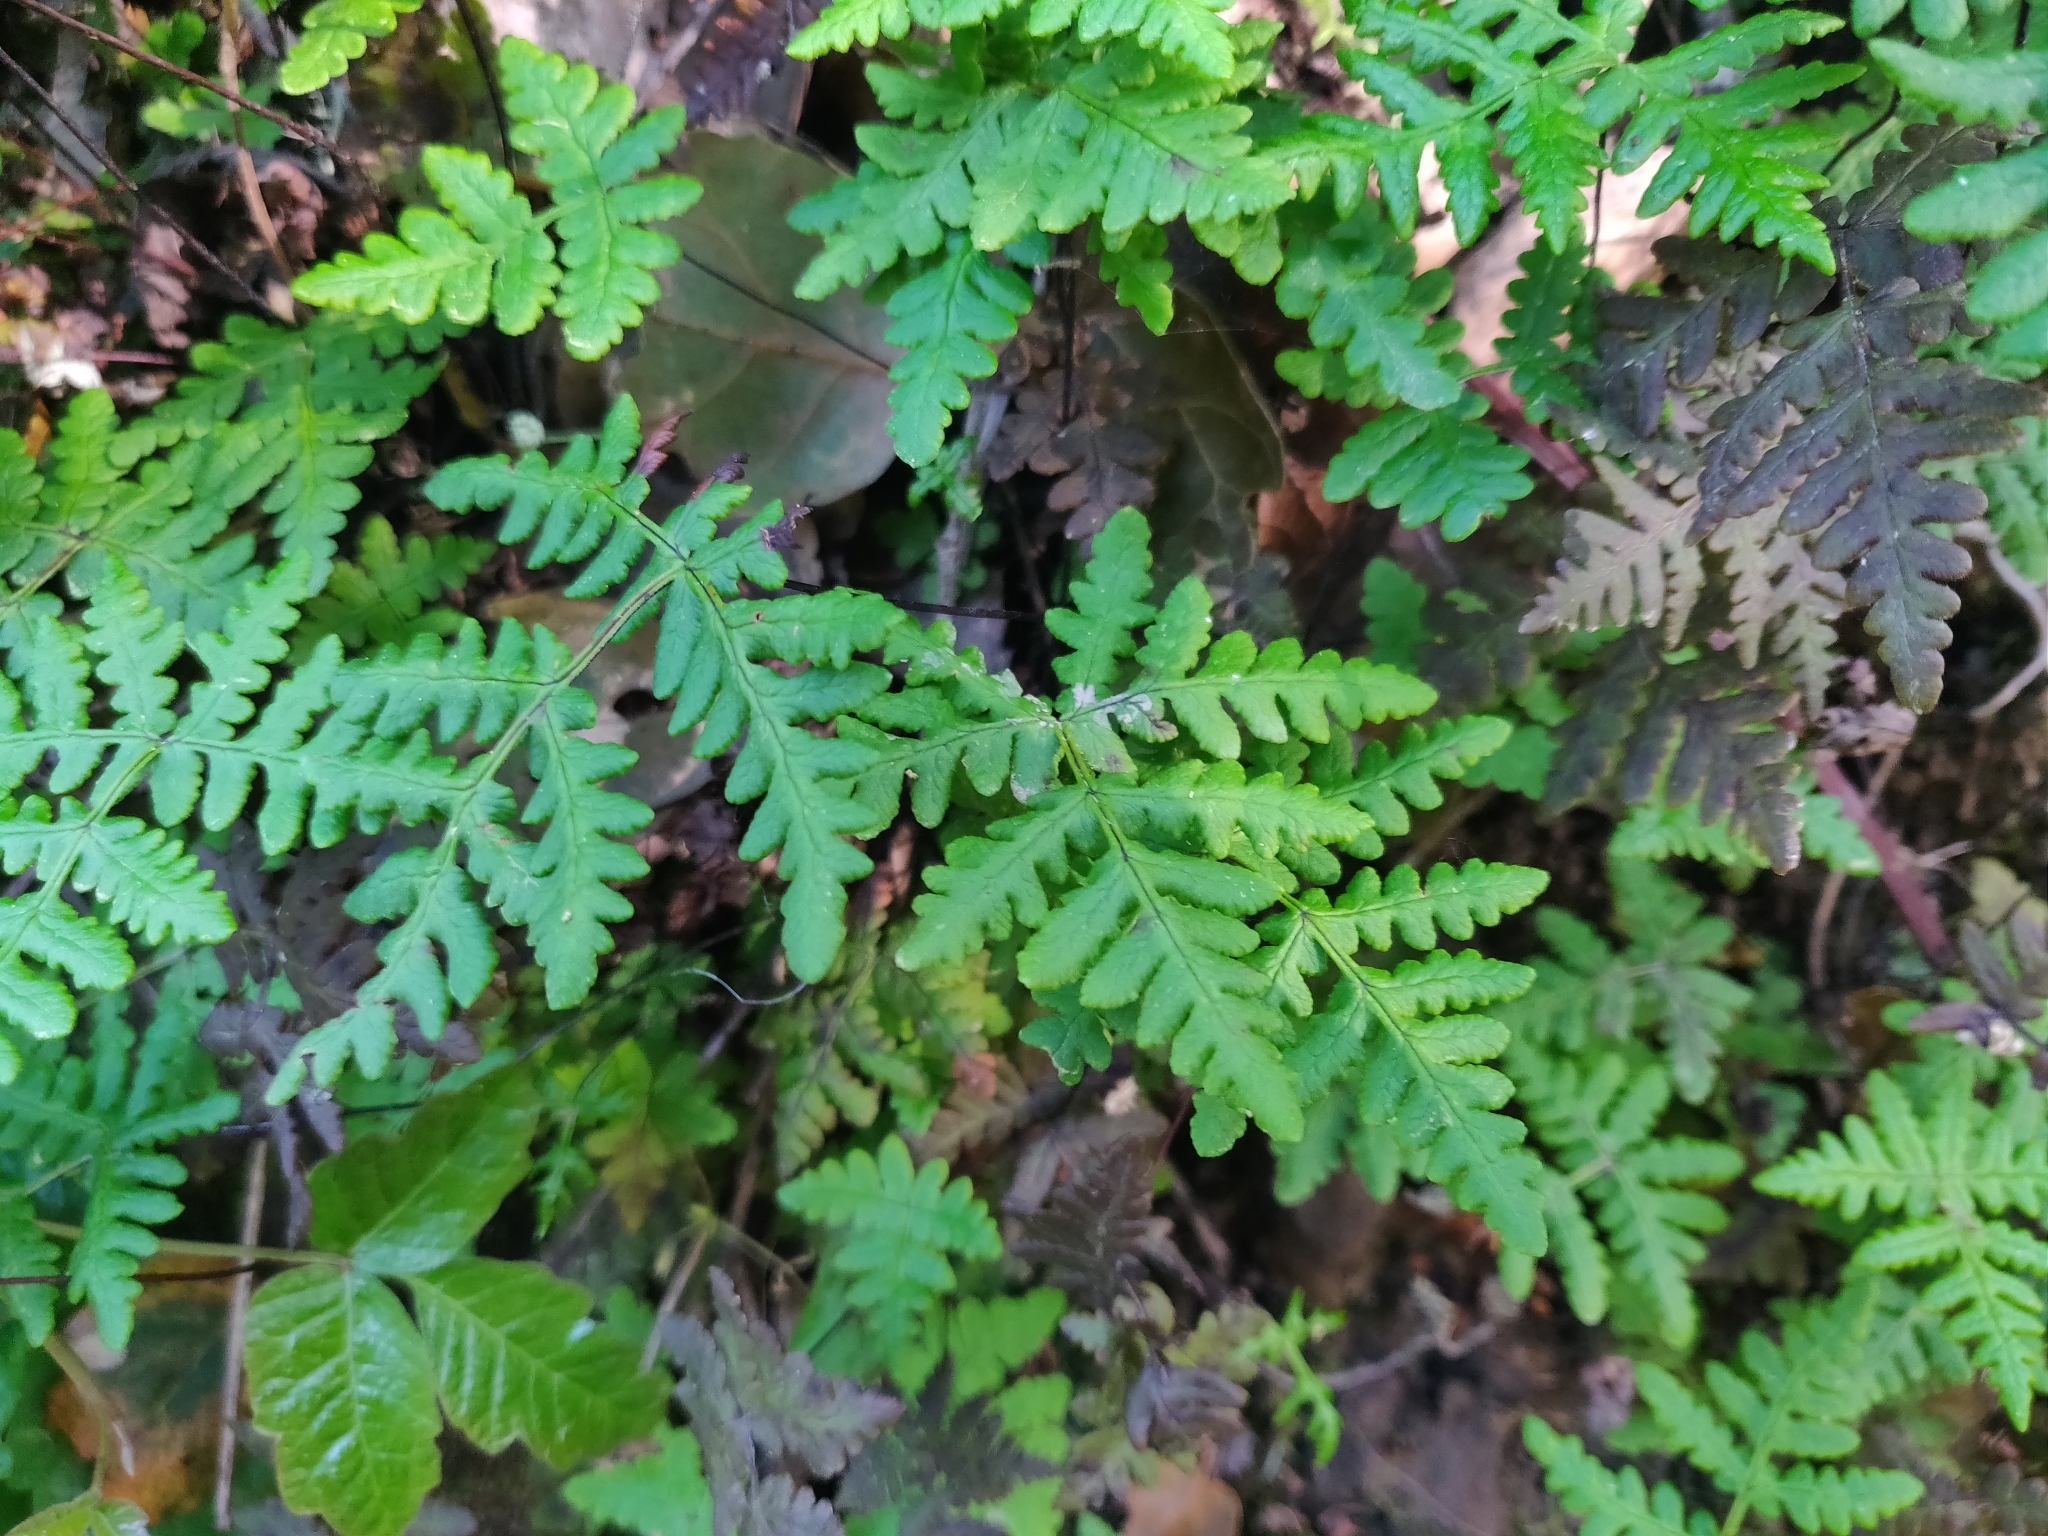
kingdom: Plantae
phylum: Tracheophyta
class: Polypodiopsida
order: Polypodiales
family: Pteridaceae
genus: Pentagramma
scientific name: Pentagramma triangularis
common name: Gold fern
